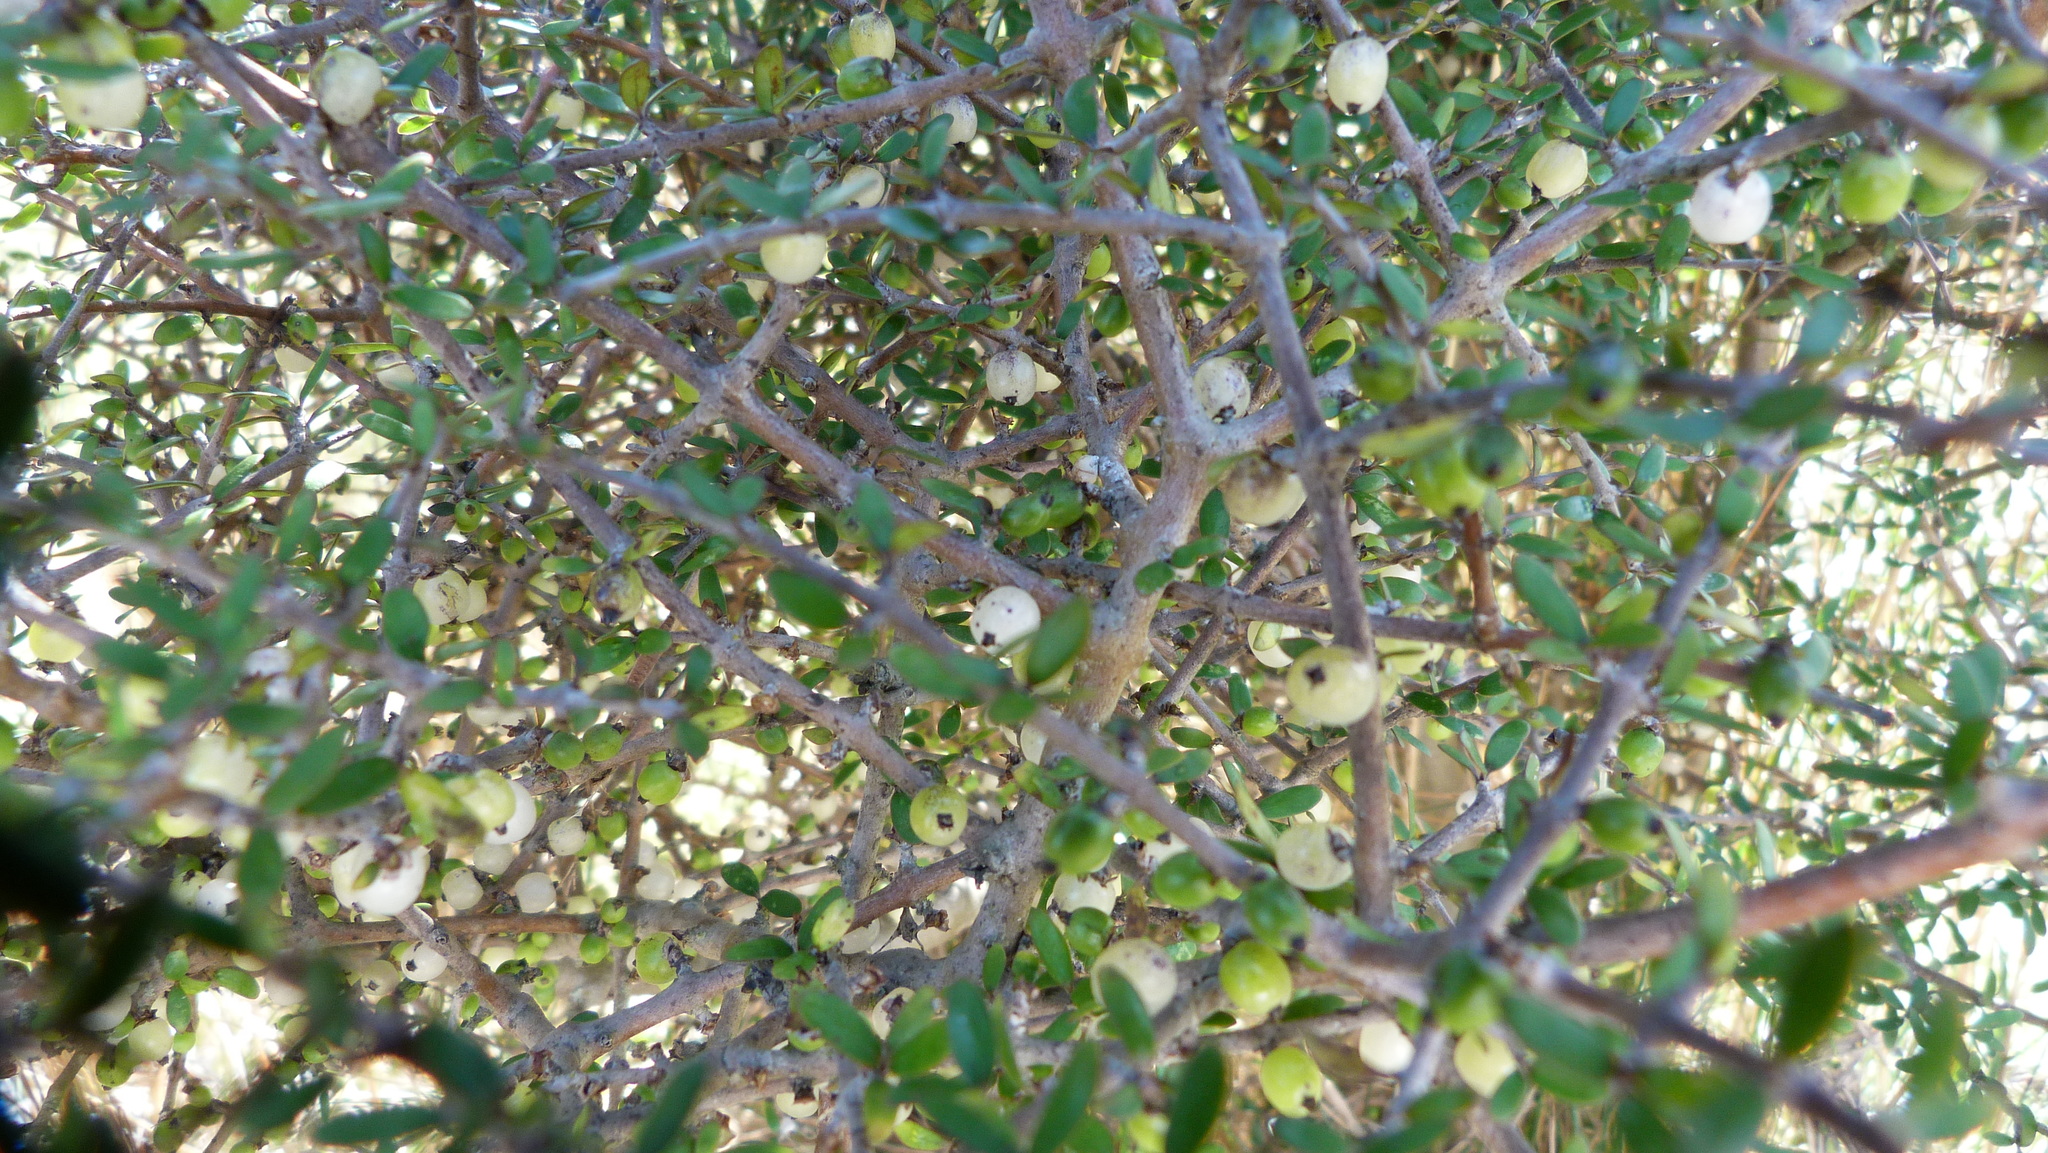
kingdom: Plantae
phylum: Tracheophyta
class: Magnoliopsida
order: Gentianales
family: Rubiaceae
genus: Coprosma
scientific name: Coprosma propinqua
